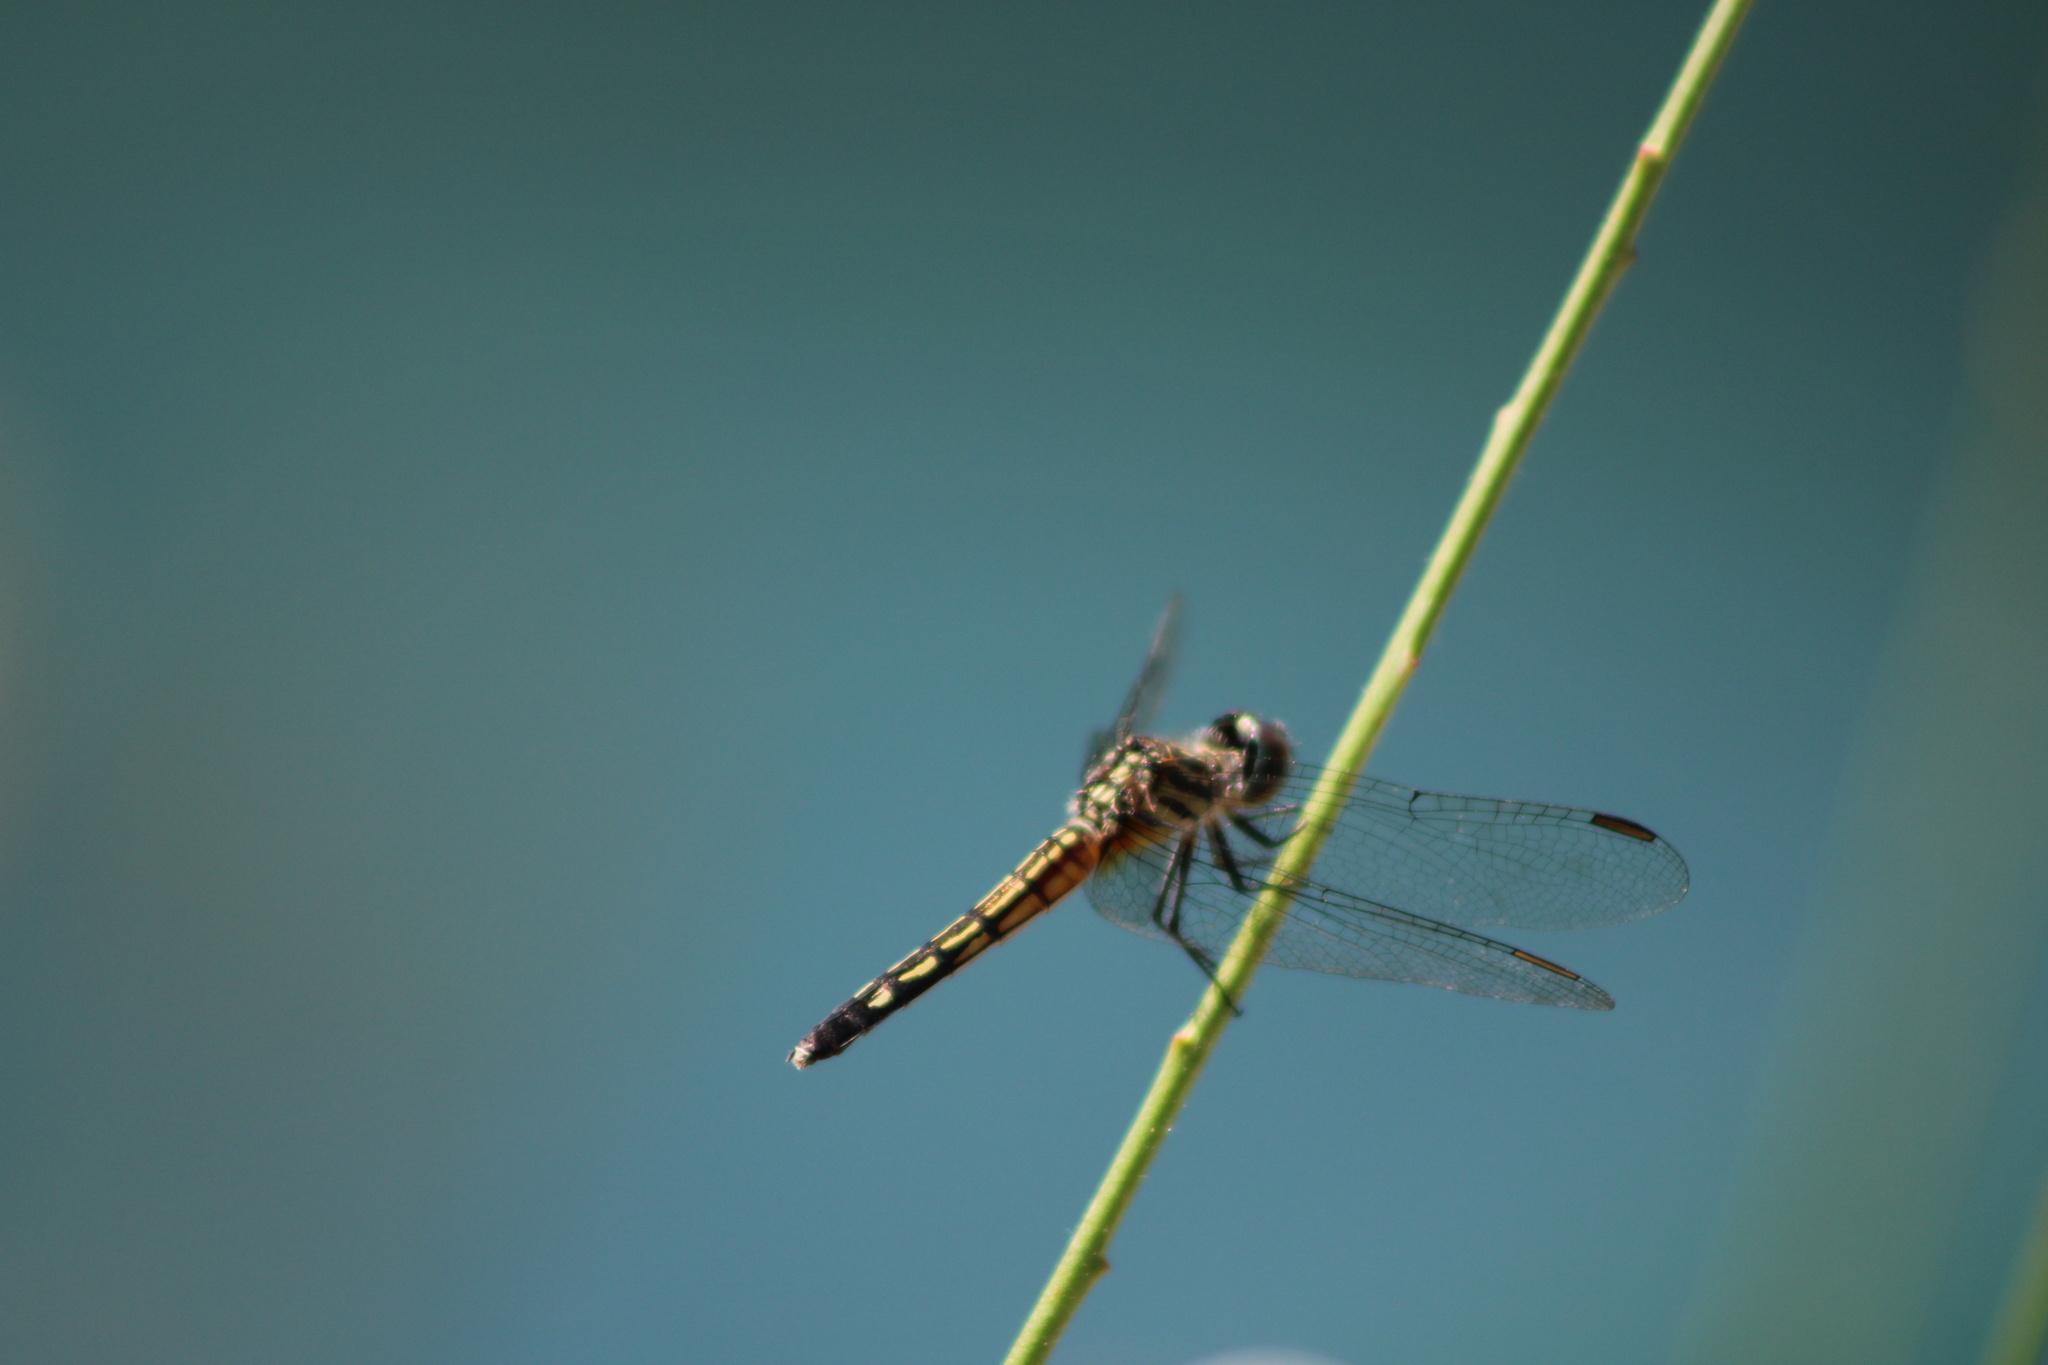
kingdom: Animalia
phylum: Arthropoda
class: Insecta
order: Odonata
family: Libellulidae
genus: Pachydiplax
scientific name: Pachydiplax longipennis
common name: Blue dasher
